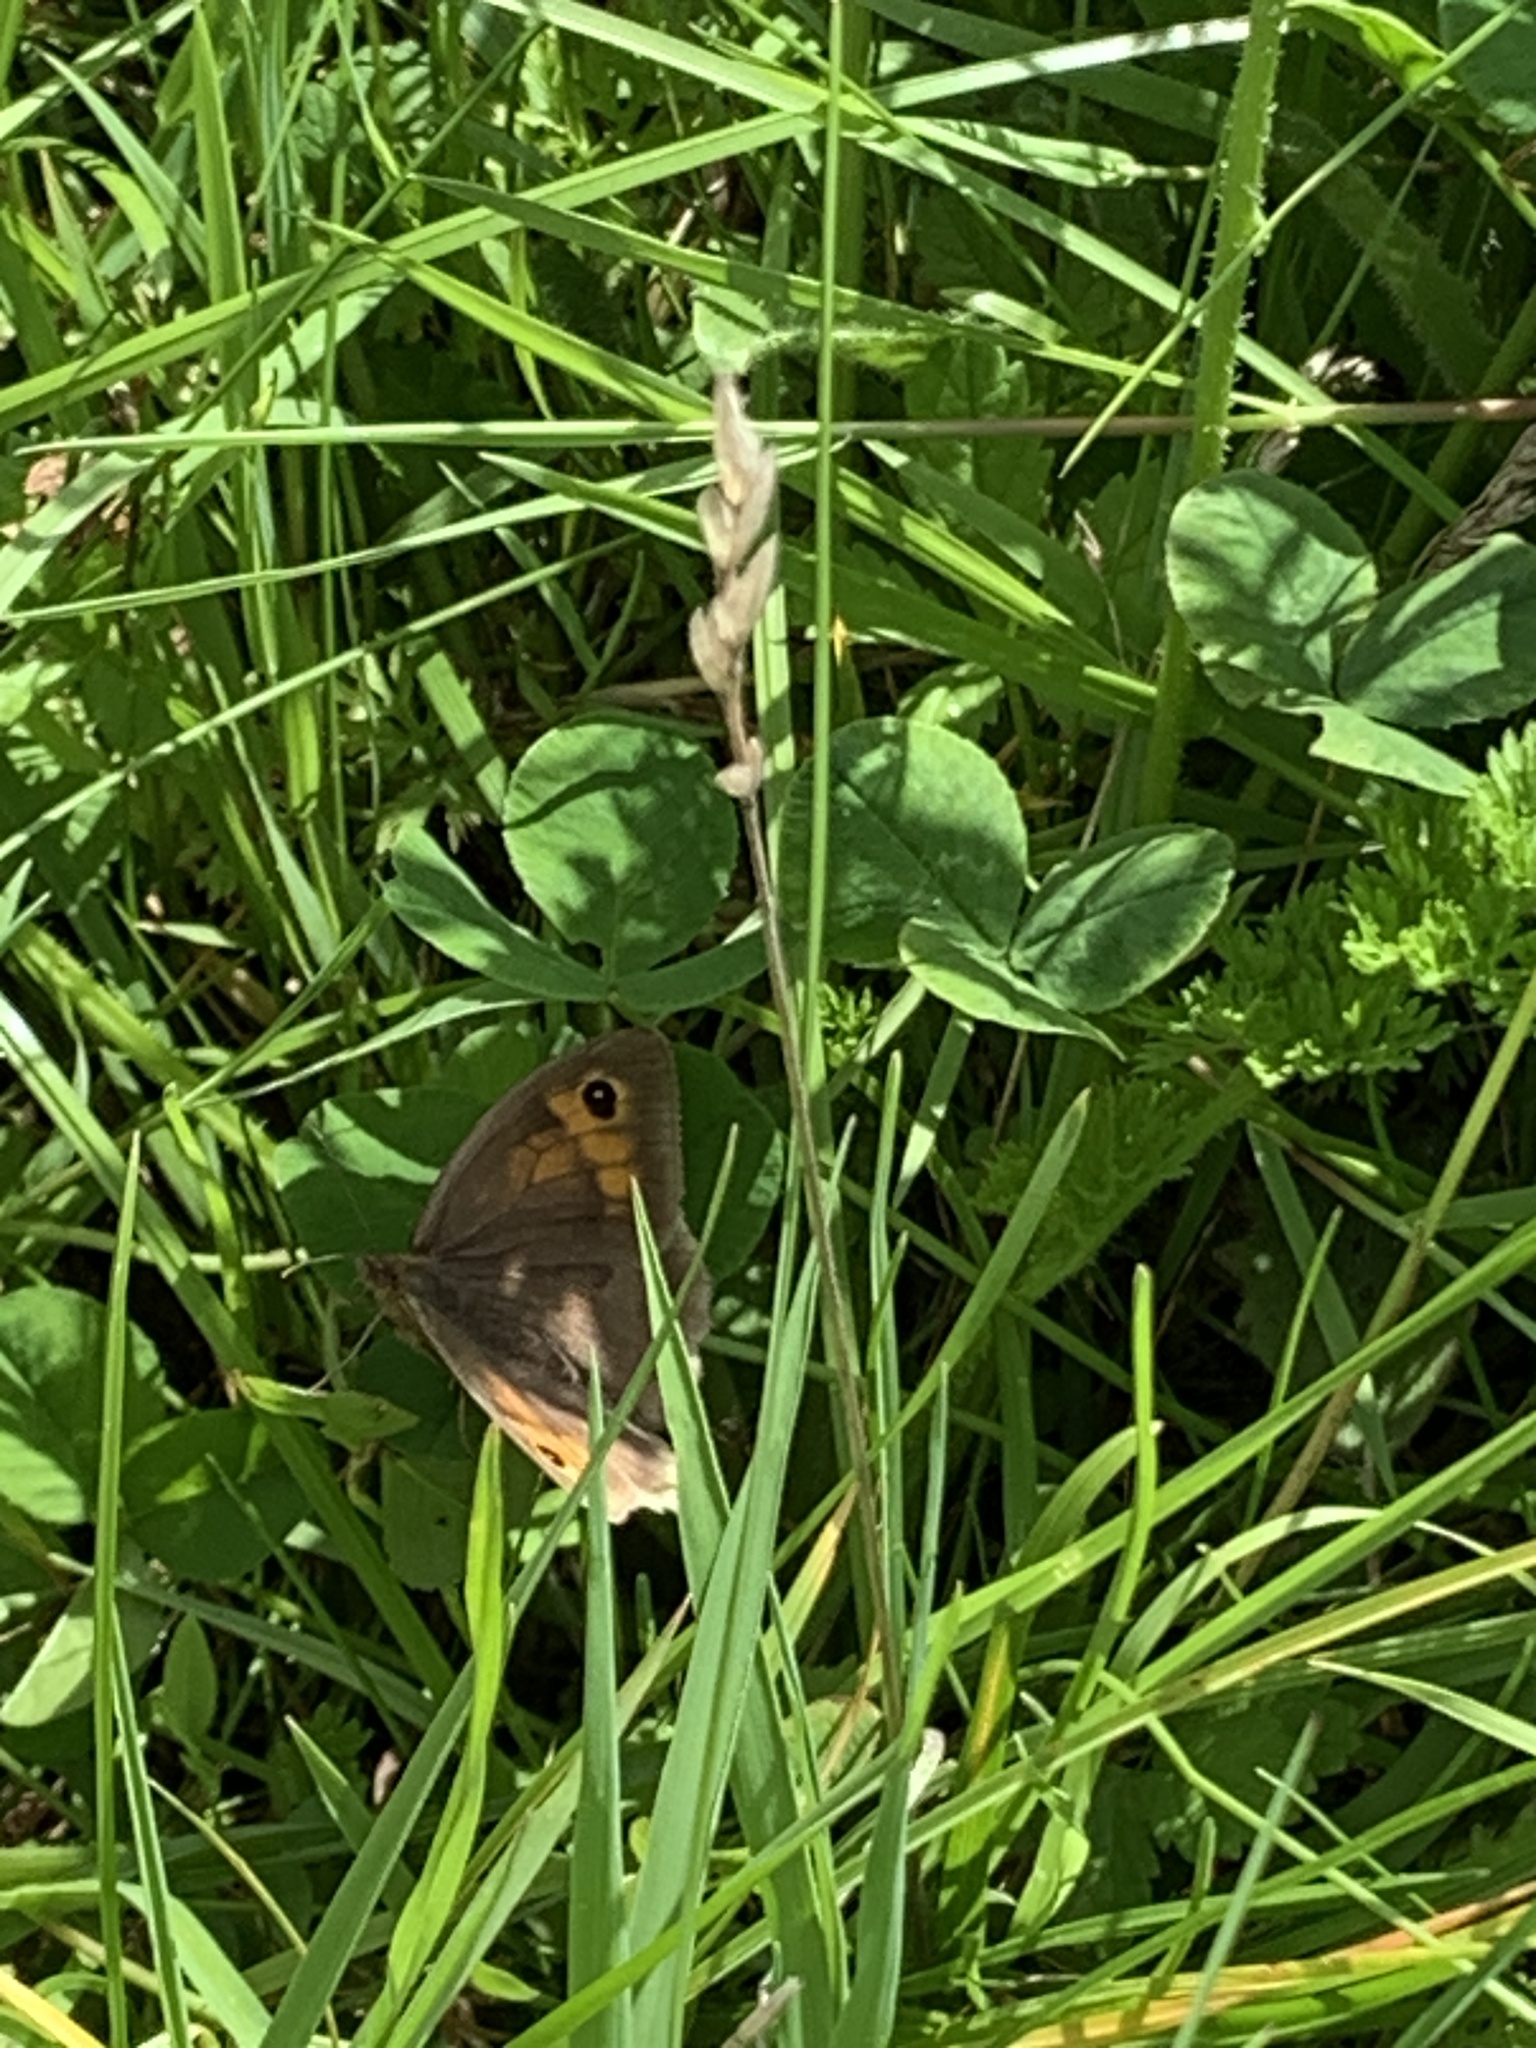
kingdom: Animalia
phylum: Arthropoda
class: Insecta
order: Lepidoptera
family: Nymphalidae
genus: Maniola
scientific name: Maniola jurtina
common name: Meadow brown
